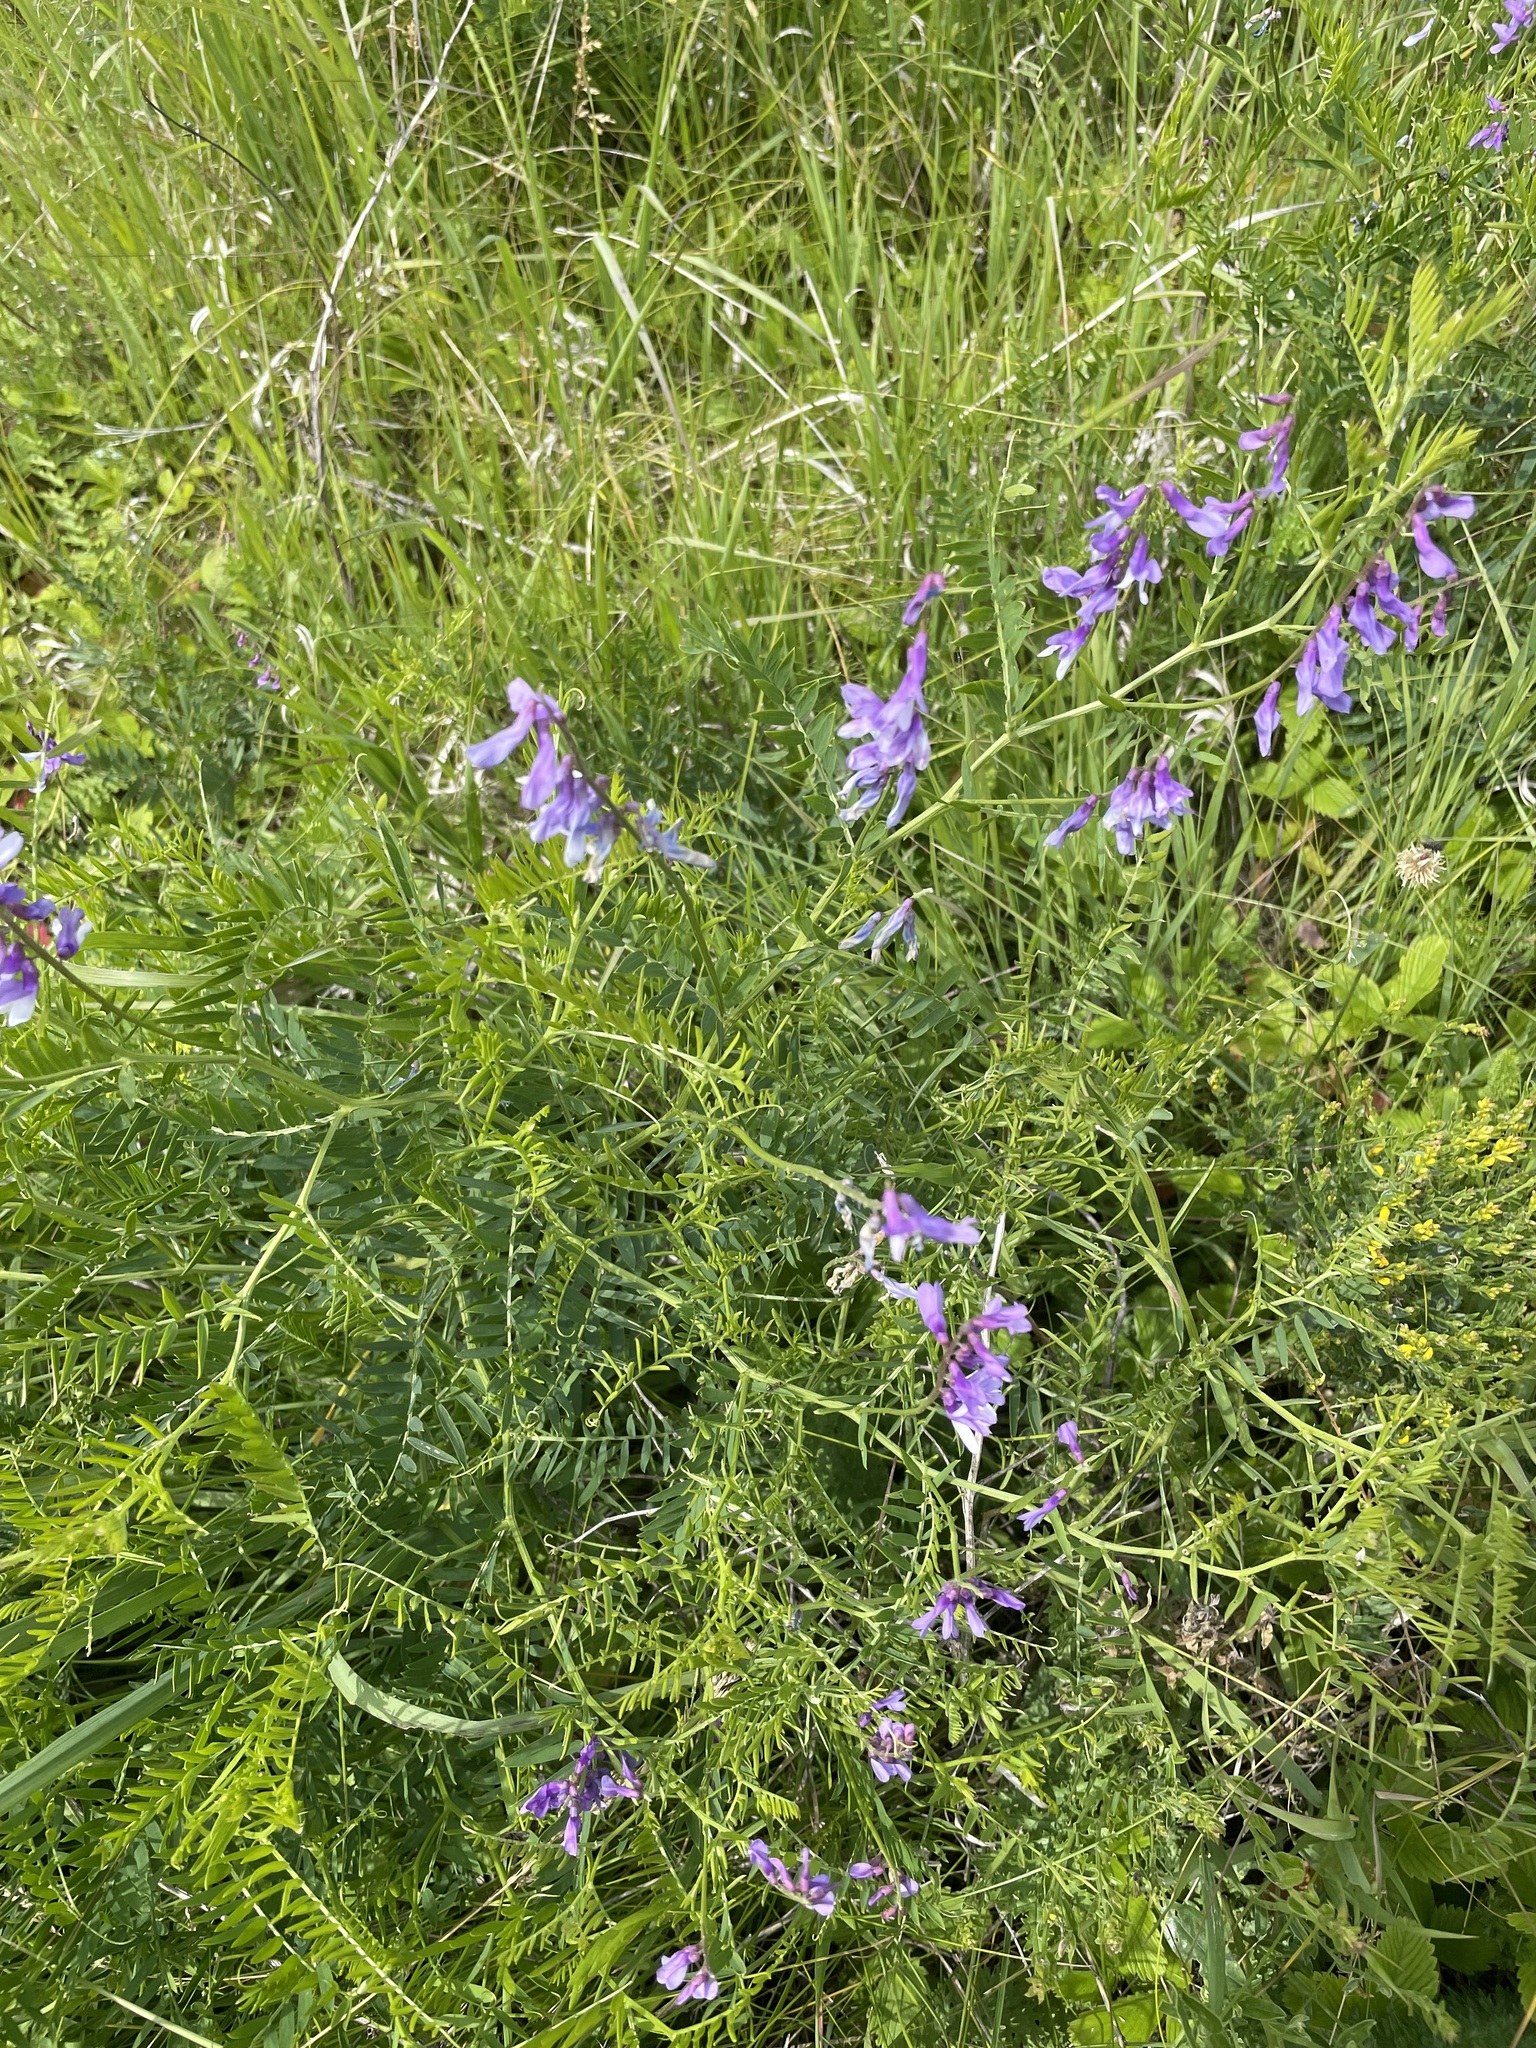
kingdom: Plantae
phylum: Tracheophyta
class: Magnoliopsida
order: Fabales
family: Fabaceae
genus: Vicia
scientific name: Vicia tenuifolia
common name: Fine-leaved vetch
